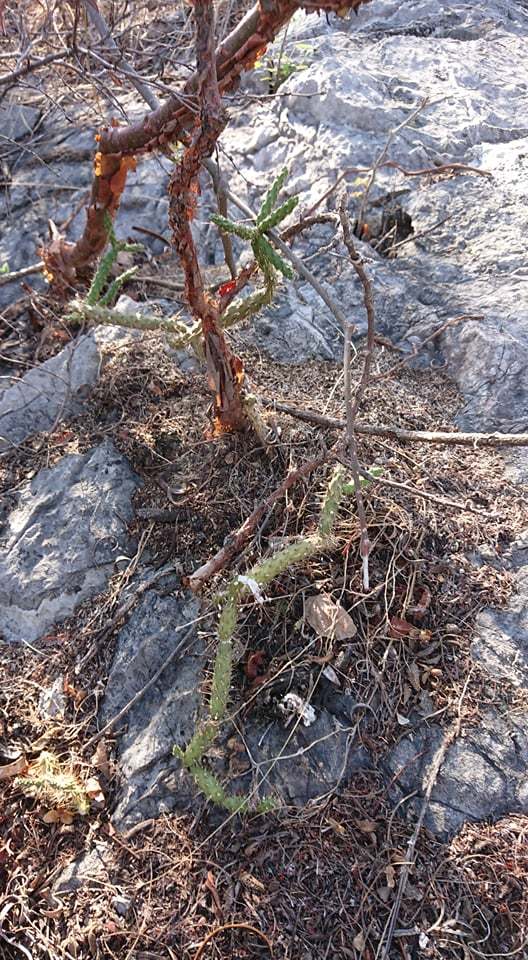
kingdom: Plantae
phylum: Tracheophyta
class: Magnoliopsida
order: Caryophyllales
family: Cactaceae
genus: Opuntia
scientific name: Opuntia pubescens
